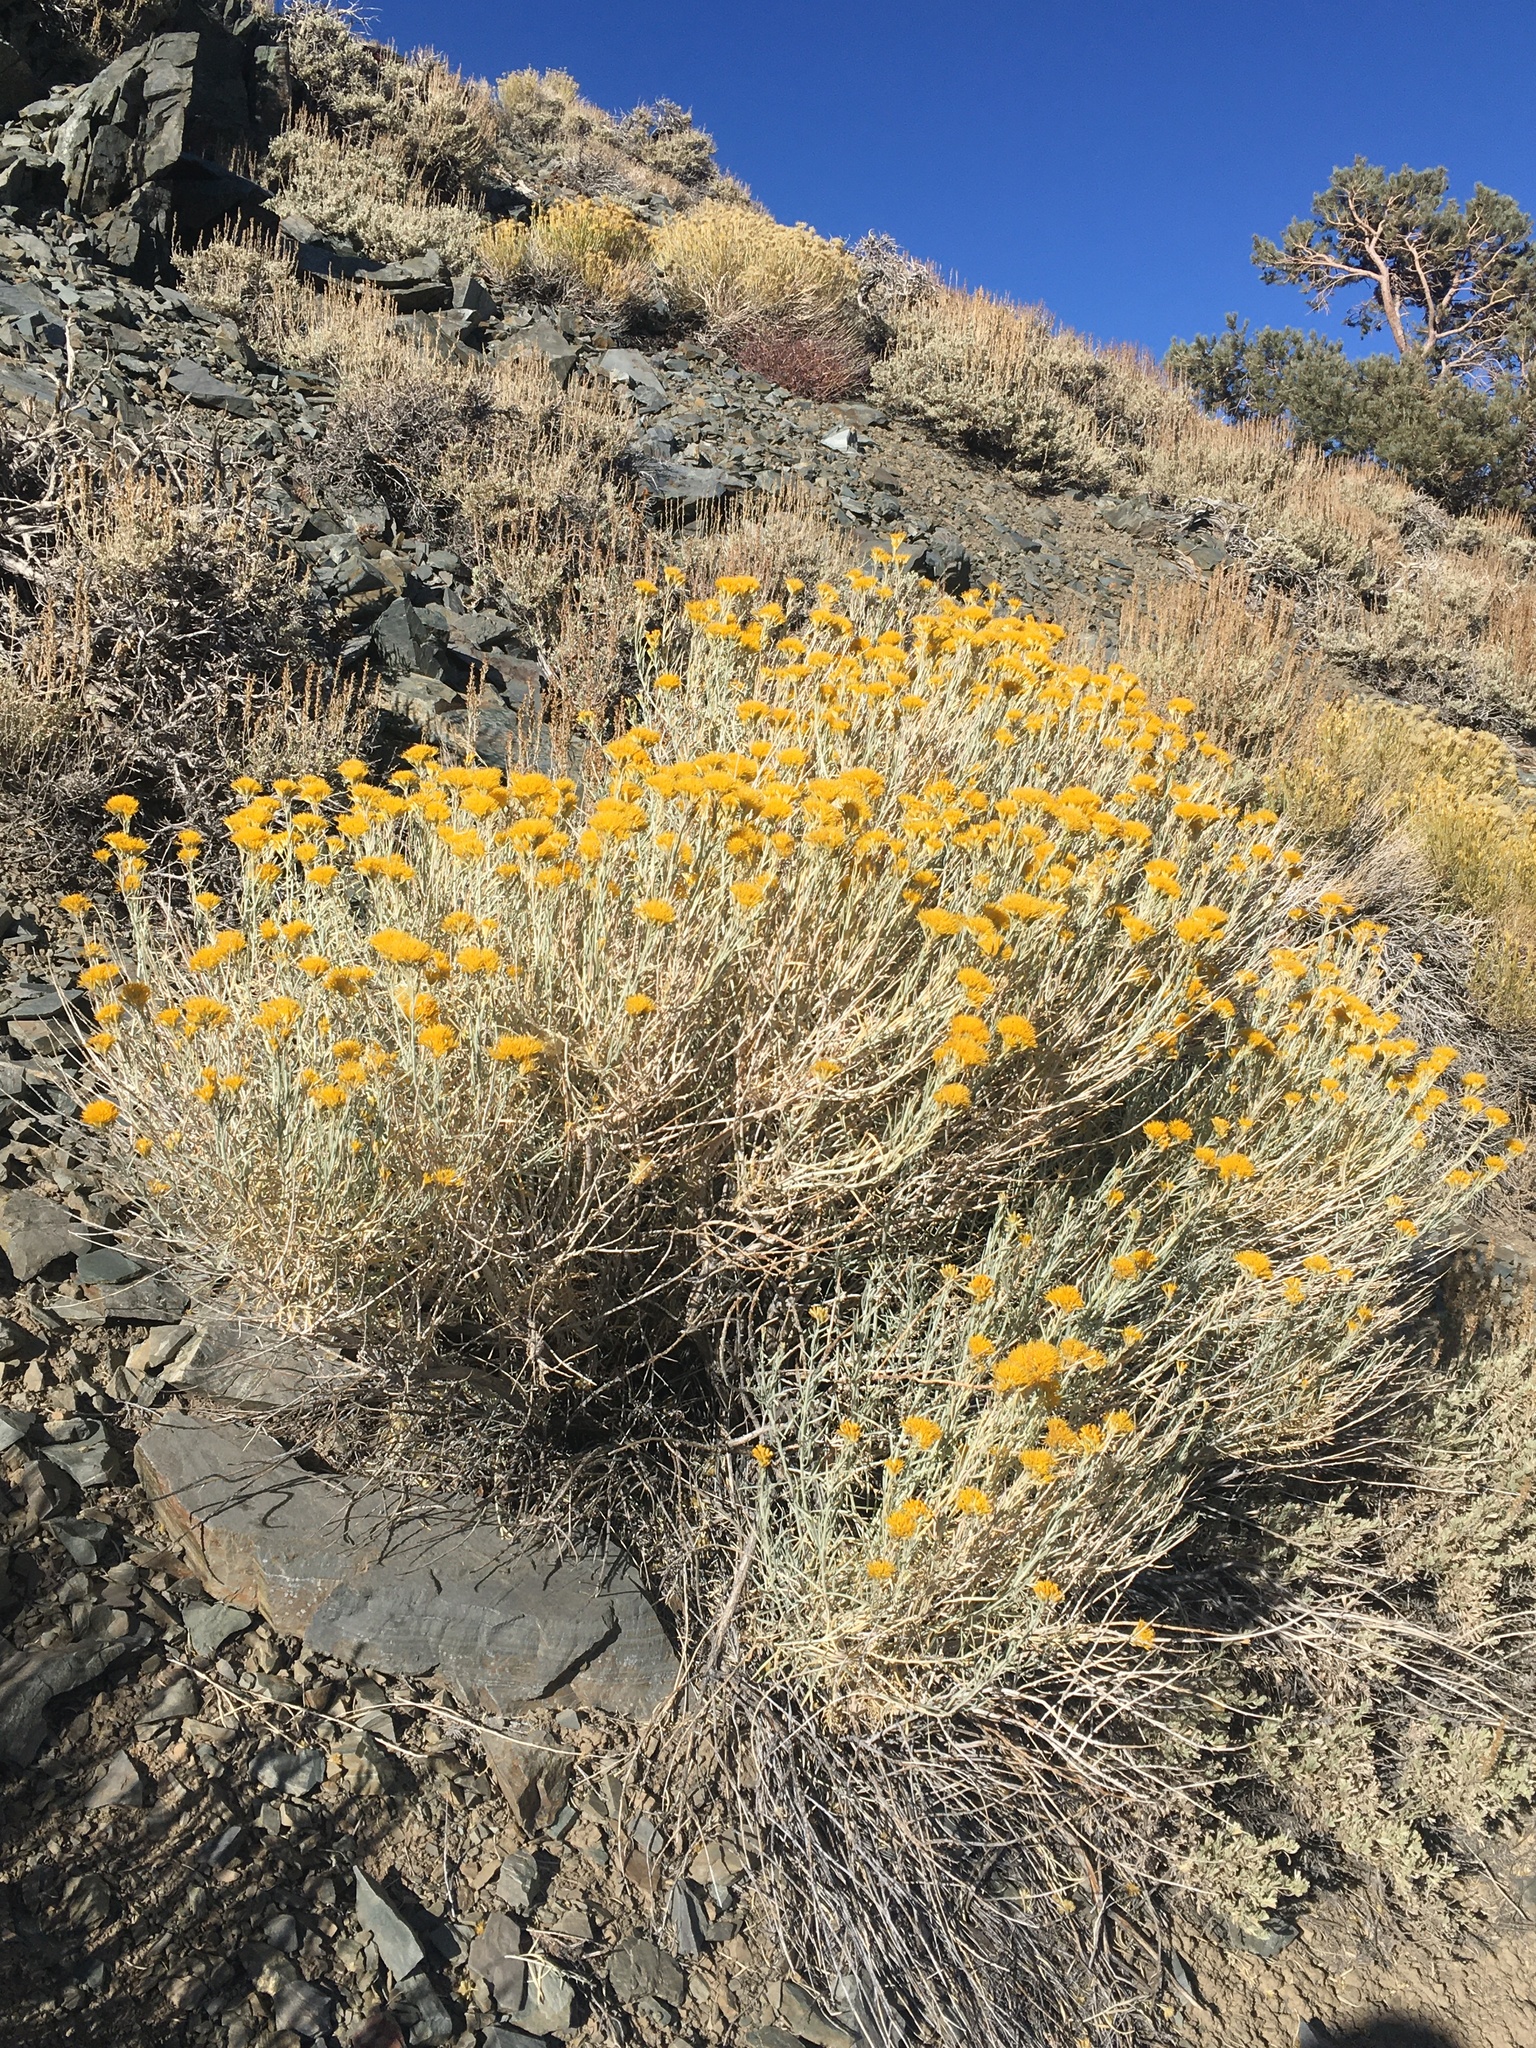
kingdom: Plantae
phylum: Tracheophyta
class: Magnoliopsida
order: Asterales
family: Asteraceae
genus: Ericameria
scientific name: Ericameria nauseosa
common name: Rubber rabbitbrush
